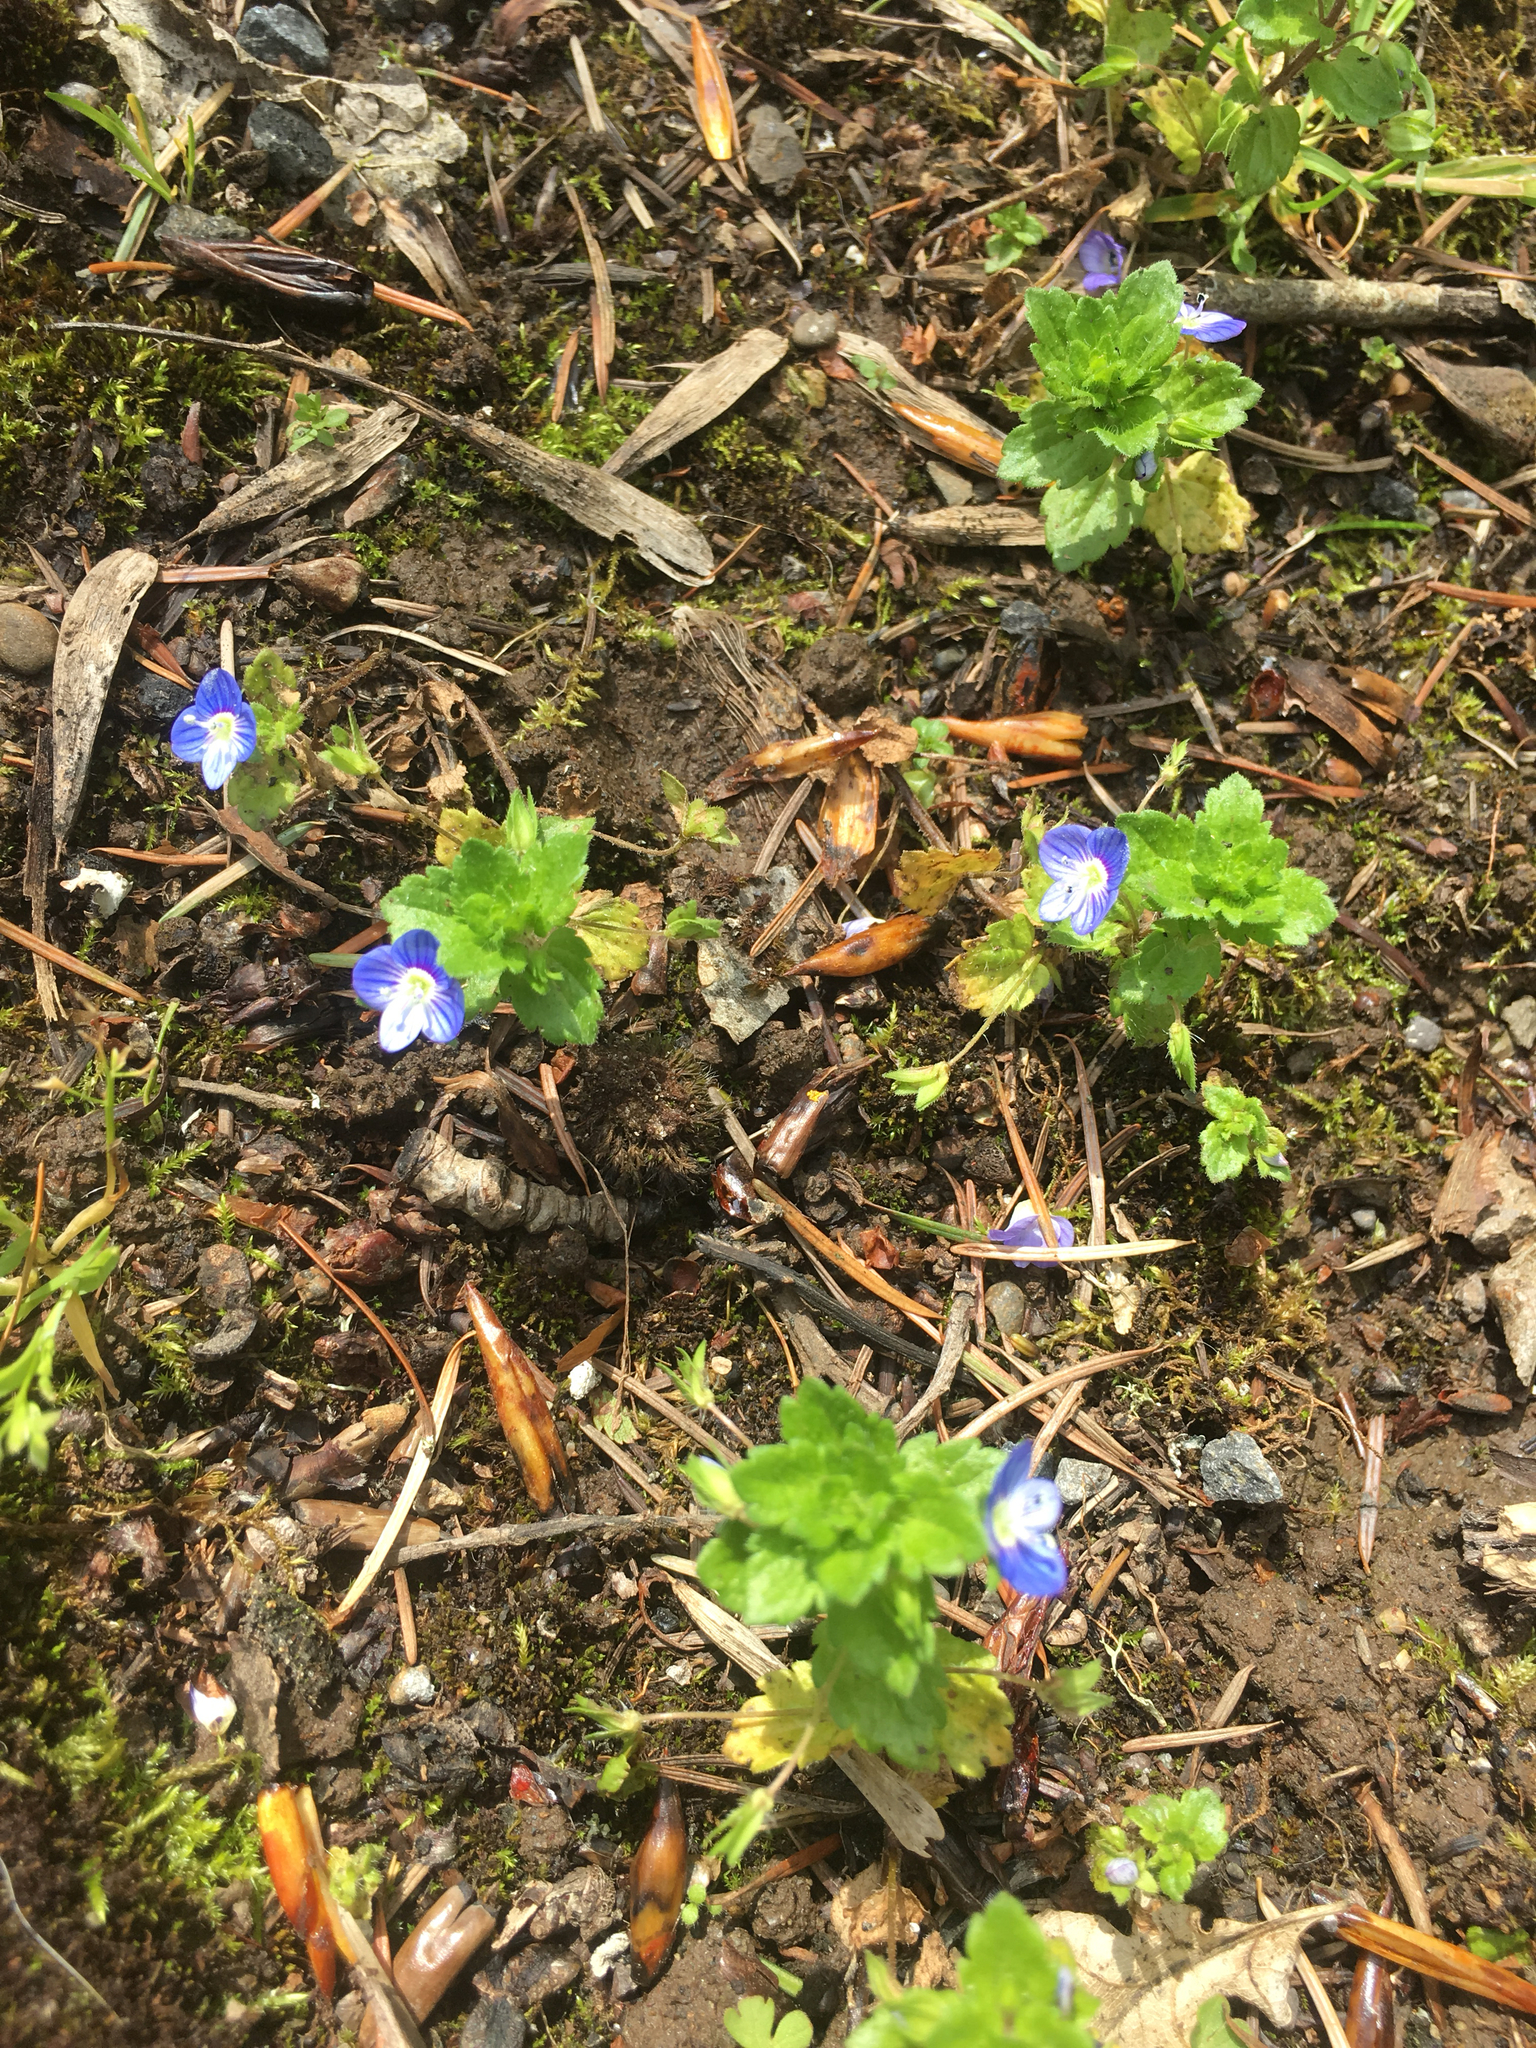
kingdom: Plantae
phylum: Tracheophyta
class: Magnoliopsida
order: Lamiales
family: Plantaginaceae
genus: Veronica
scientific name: Veronica persica
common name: Common field-speedwell
